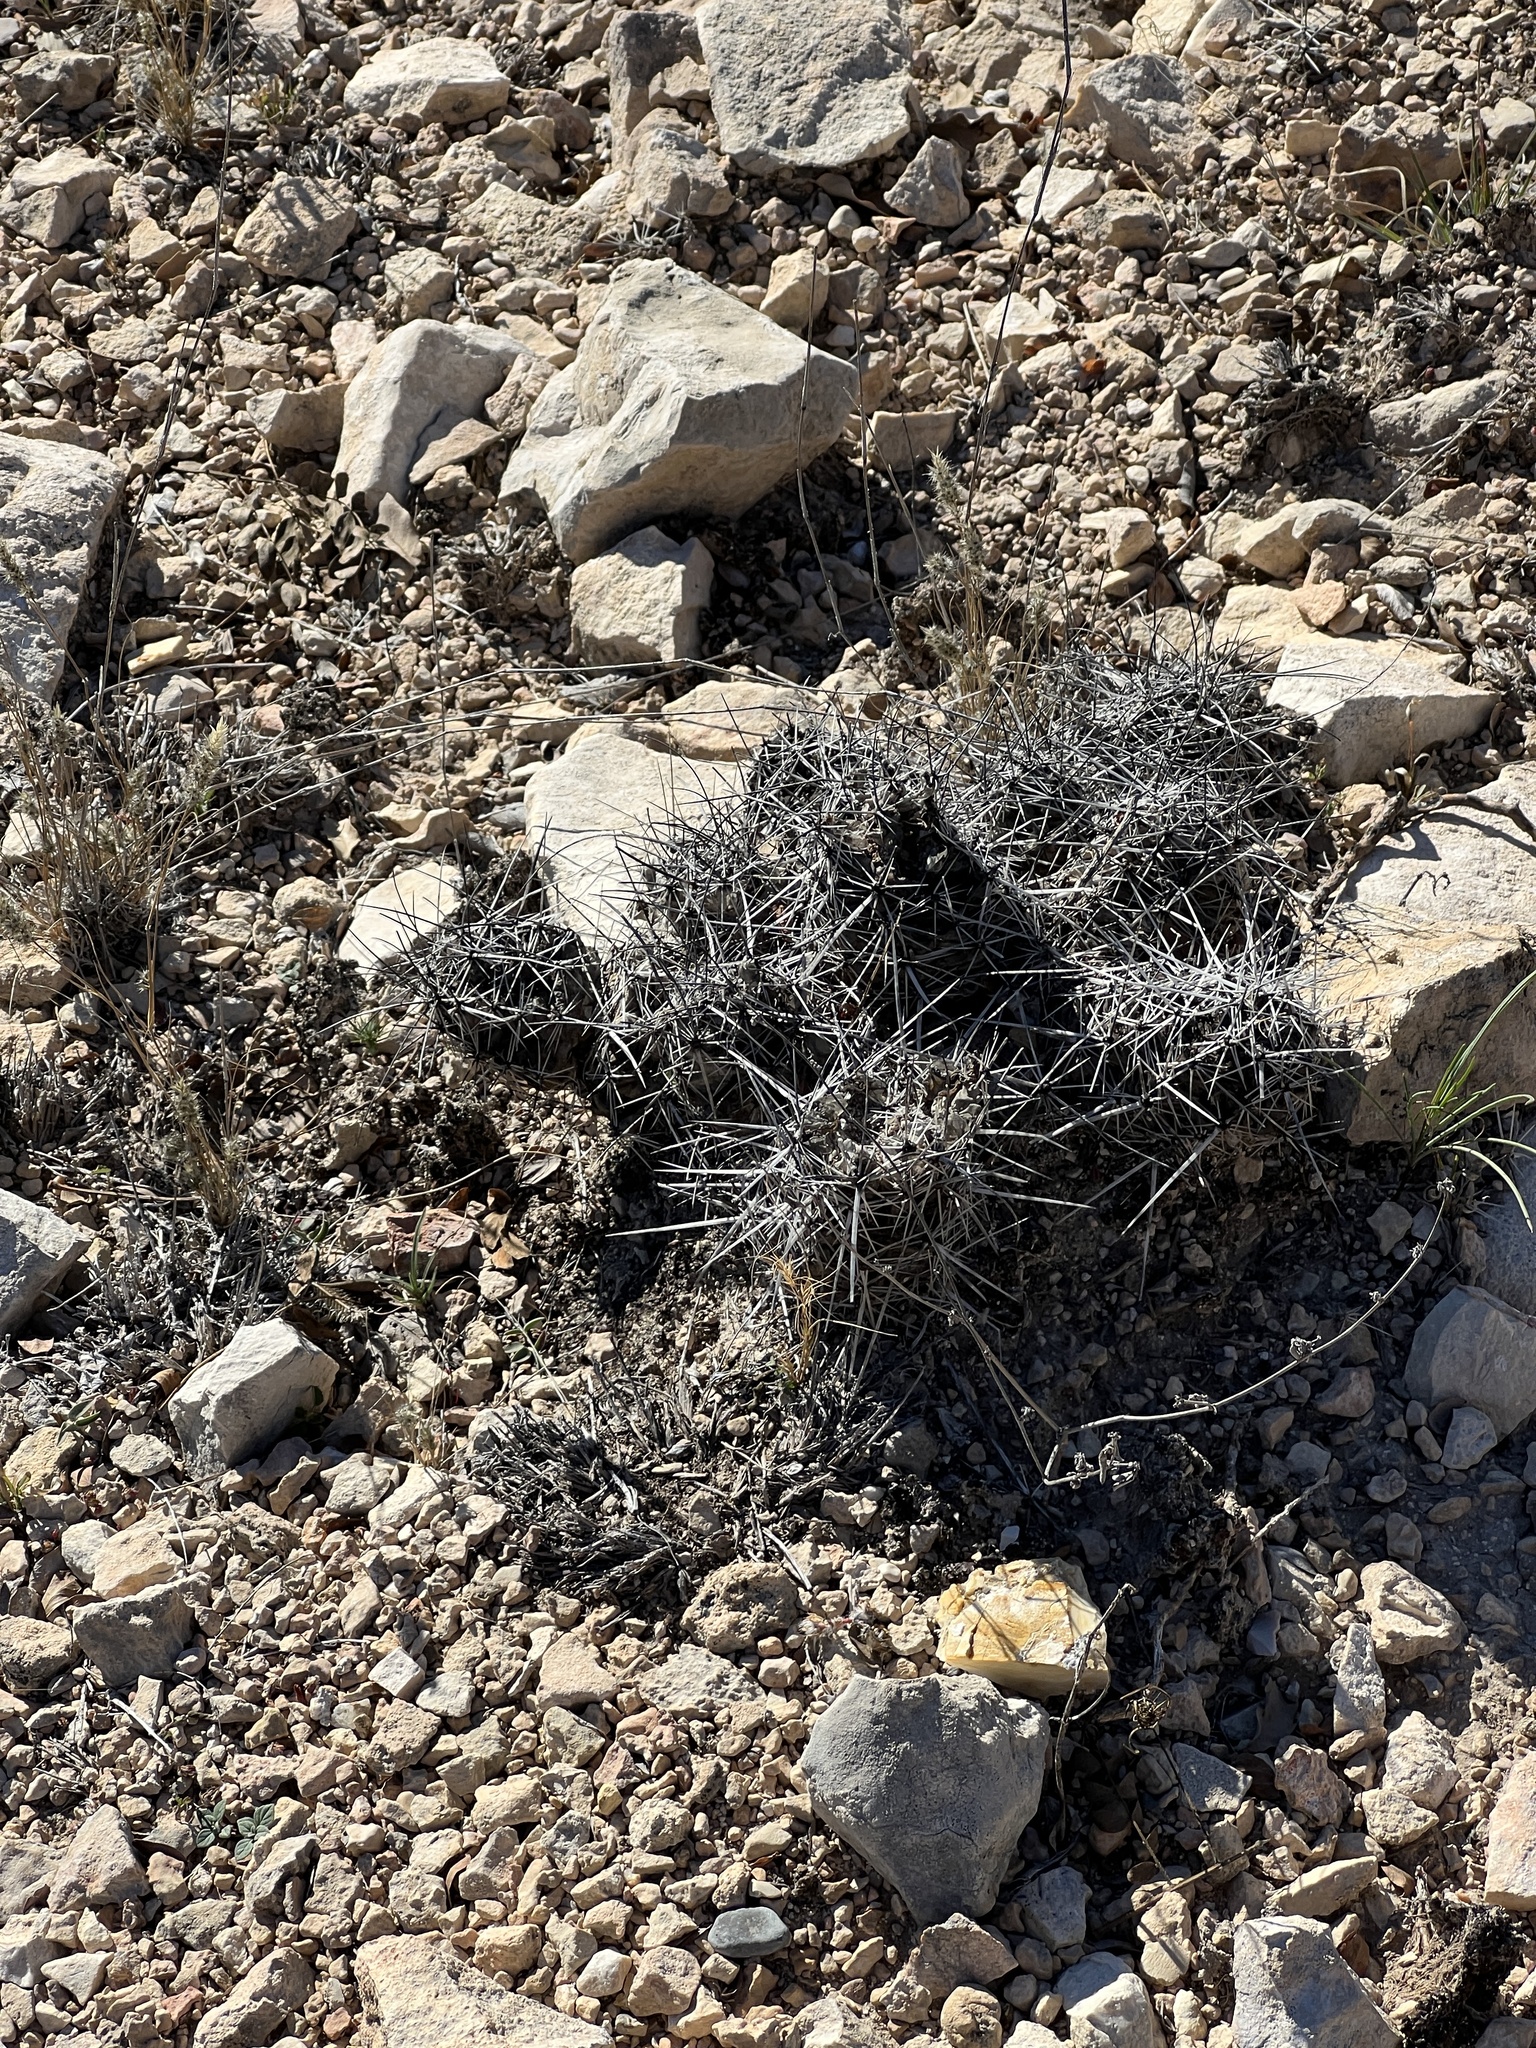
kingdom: Plantae
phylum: Tracheophyta
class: Magnoliopsida
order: Caryophyllales
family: Cactaceae
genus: Coryphantha
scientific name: Coryphantha macromeris
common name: Nipple beehive cactus
